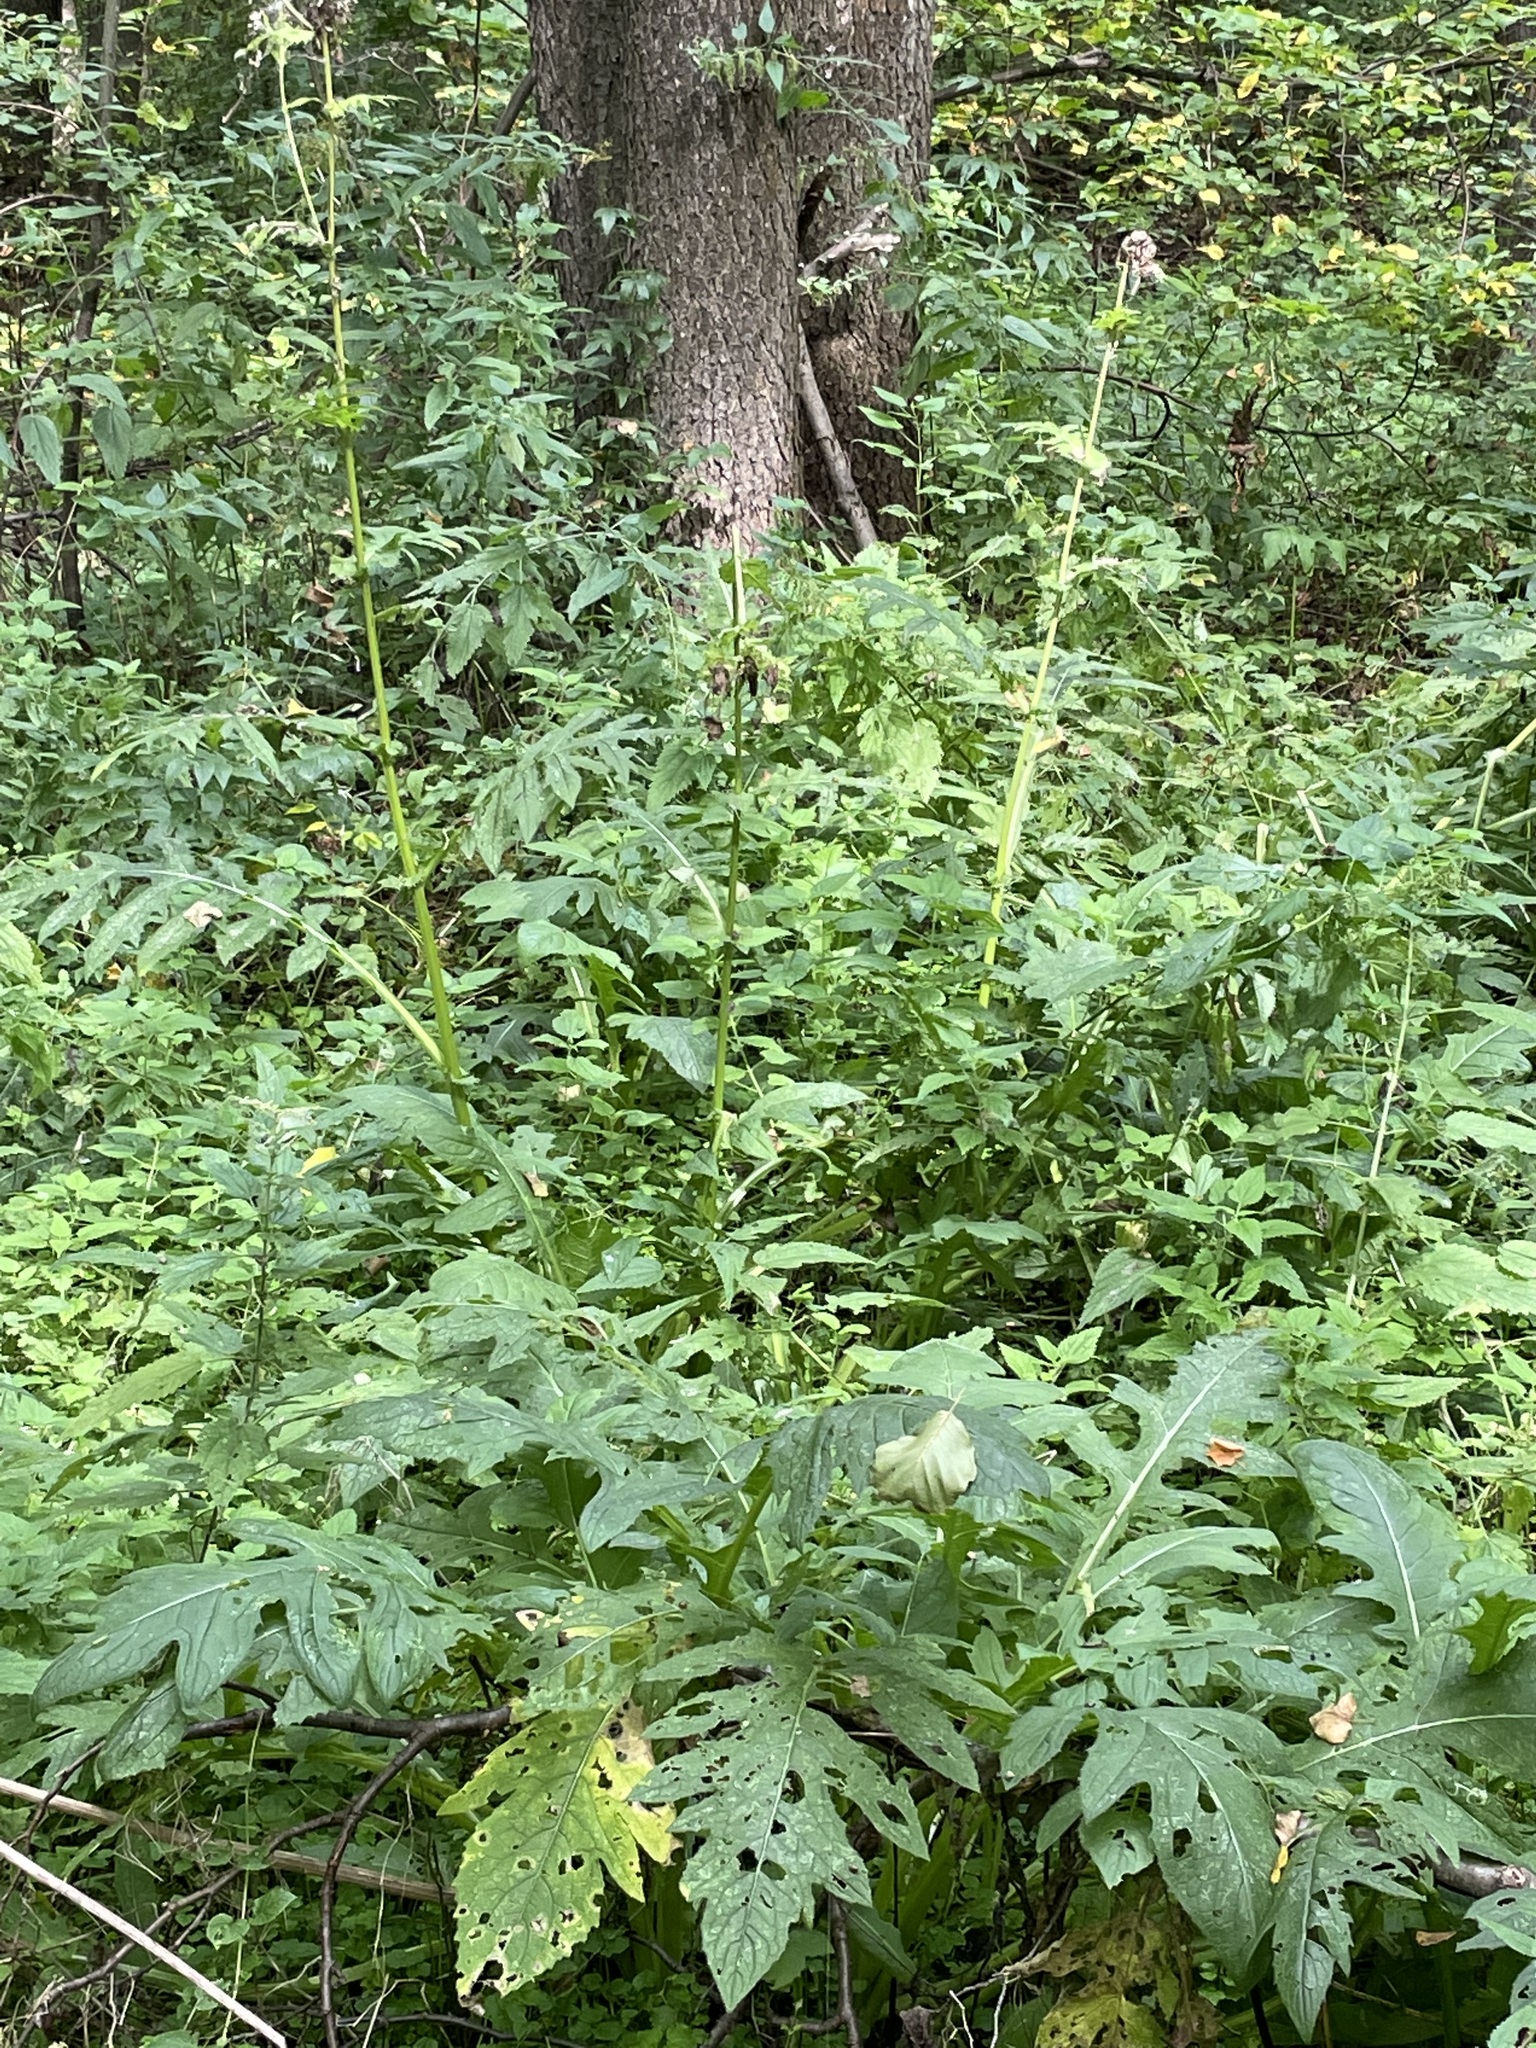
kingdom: Plantae
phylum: Tracheophyta
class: Magnoliopsida
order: Asterales
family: Asteraceae
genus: Cirsium
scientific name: Cirsium oleraceum
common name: Cabbage thistle
